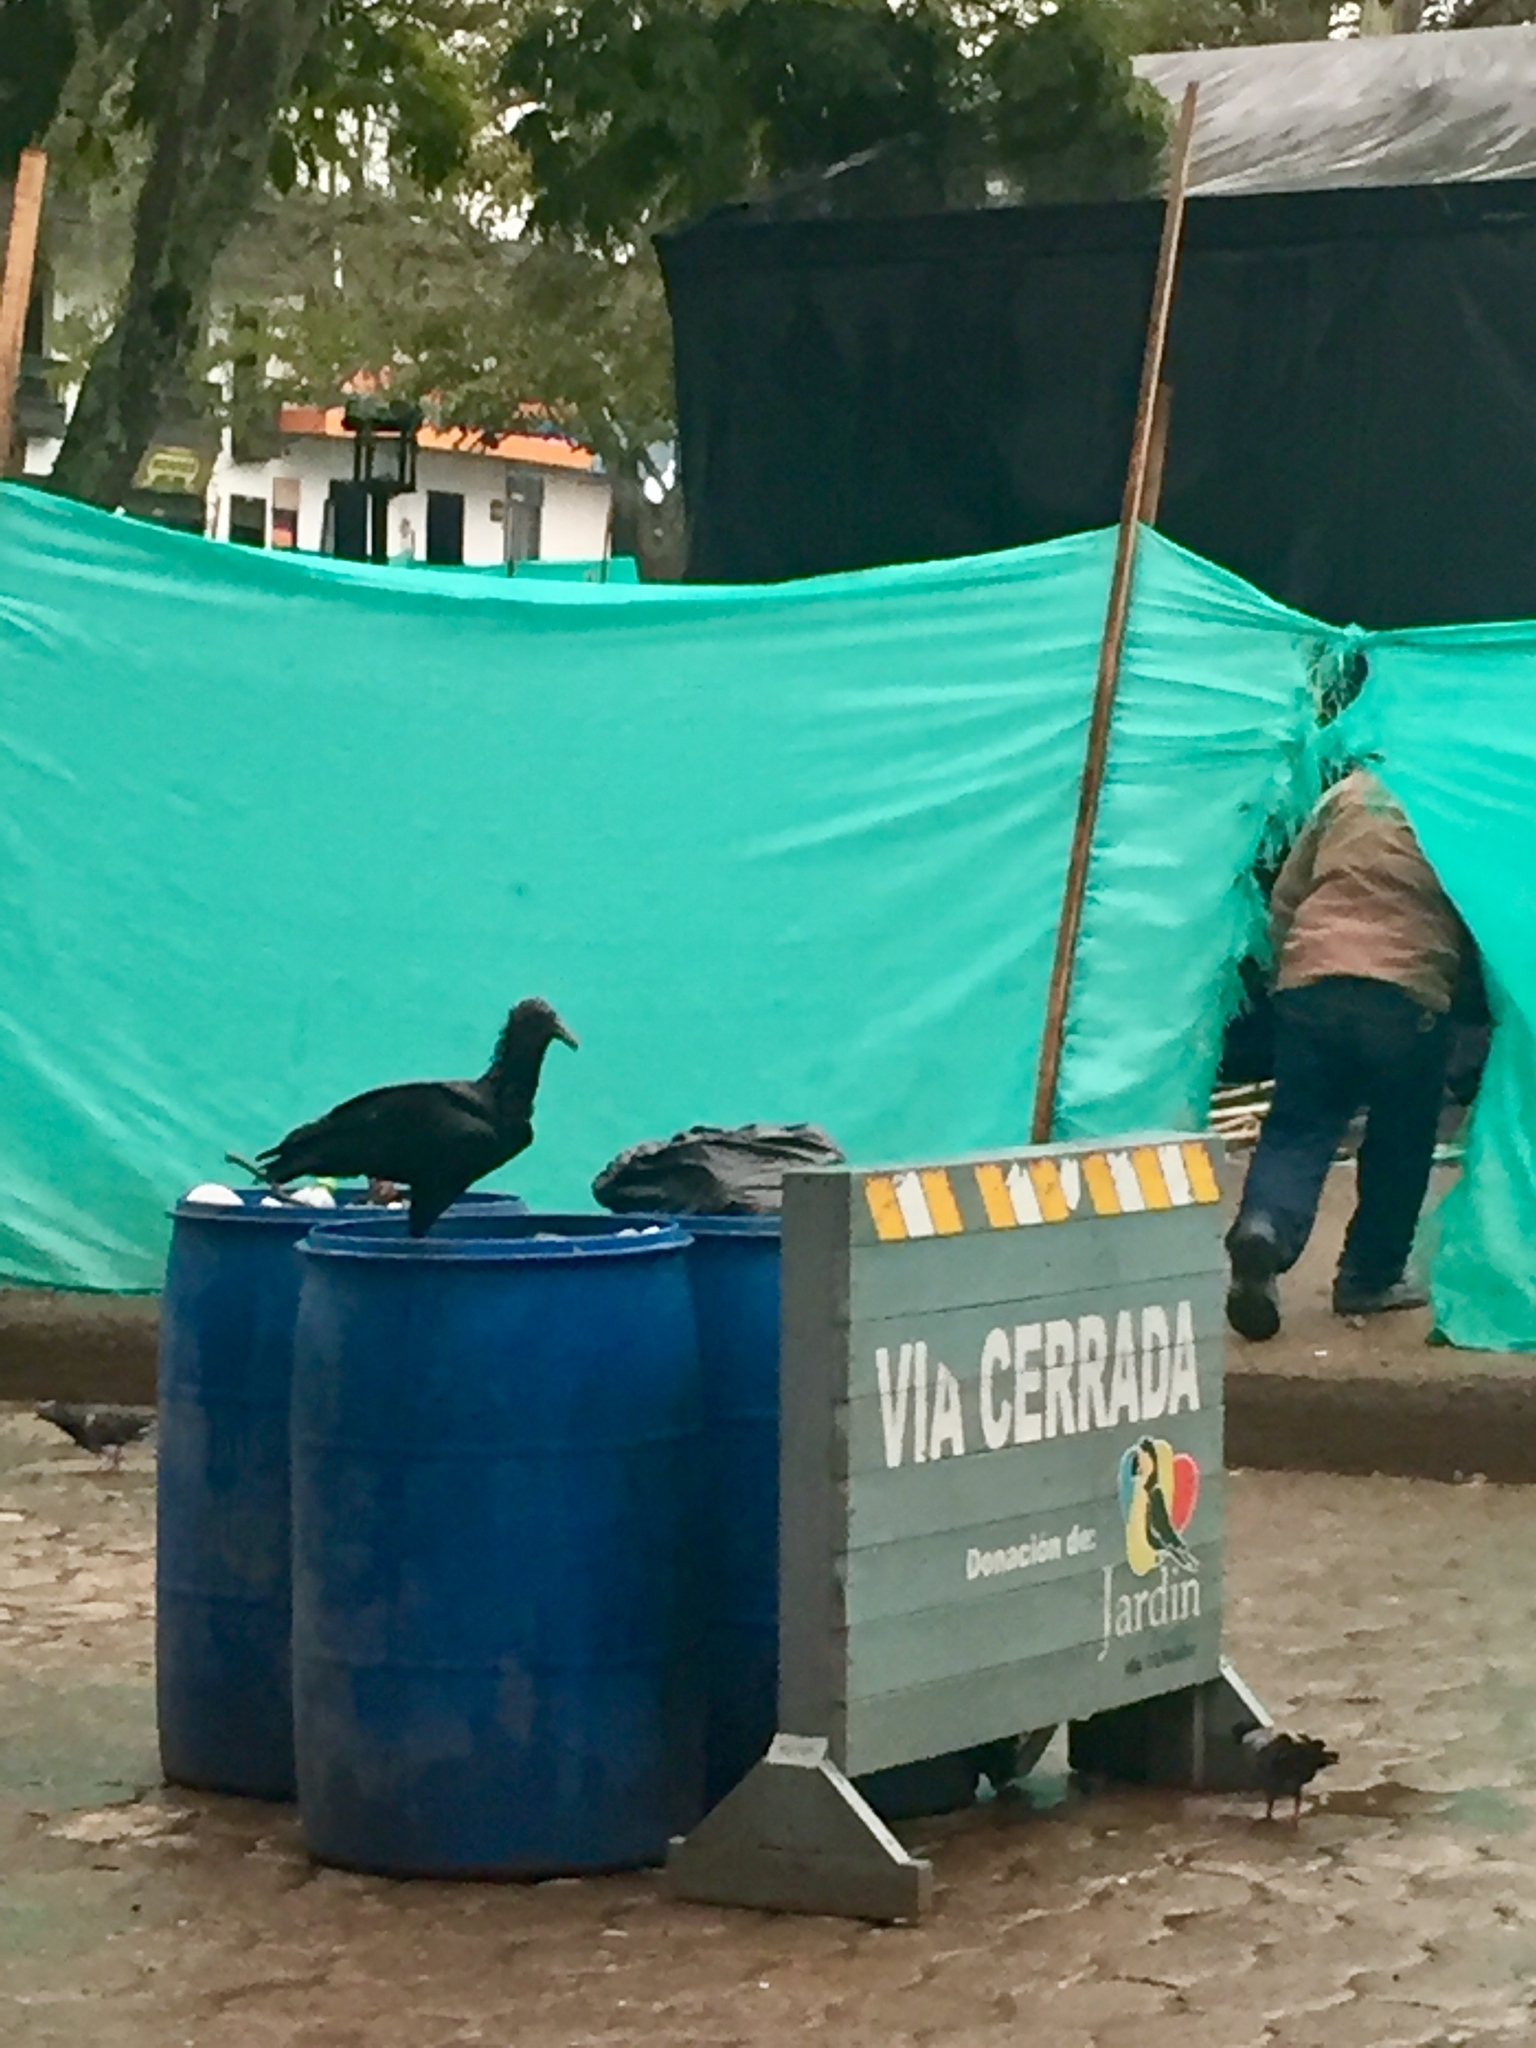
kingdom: Animalia
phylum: Chordata
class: Aves
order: Accipitriformes
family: Cathartidae
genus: Coragyps
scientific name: Coragyps atratus
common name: Black vulture
